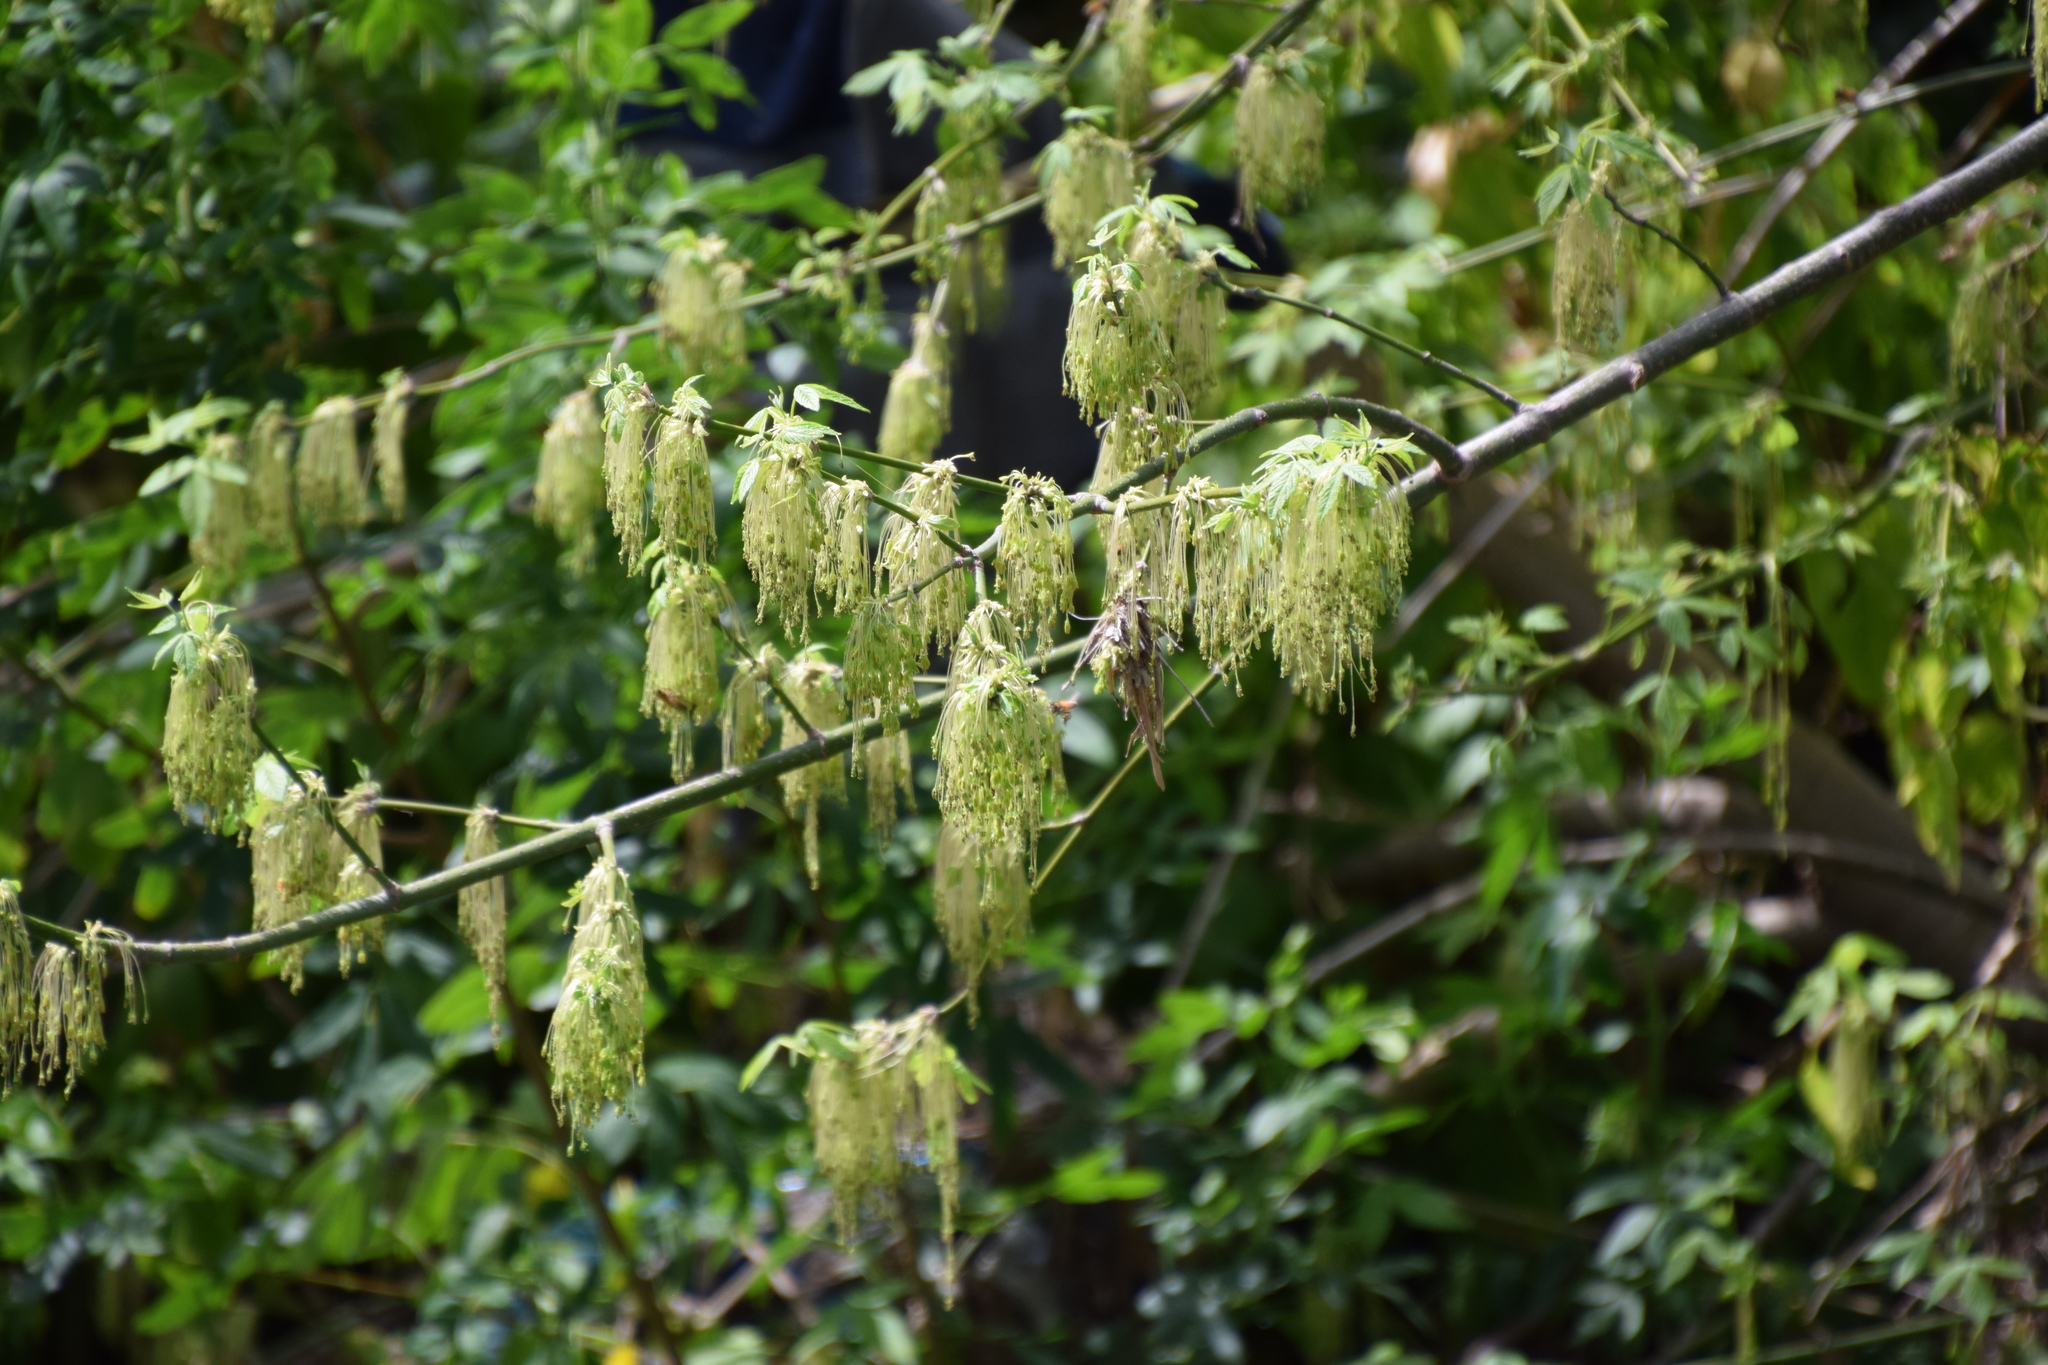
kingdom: Plantae
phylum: Tracheophyta
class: Magnoliopsida
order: Sapindales
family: Sapindaceae
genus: Acer
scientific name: Acer negundo
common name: Ashleaf maple
